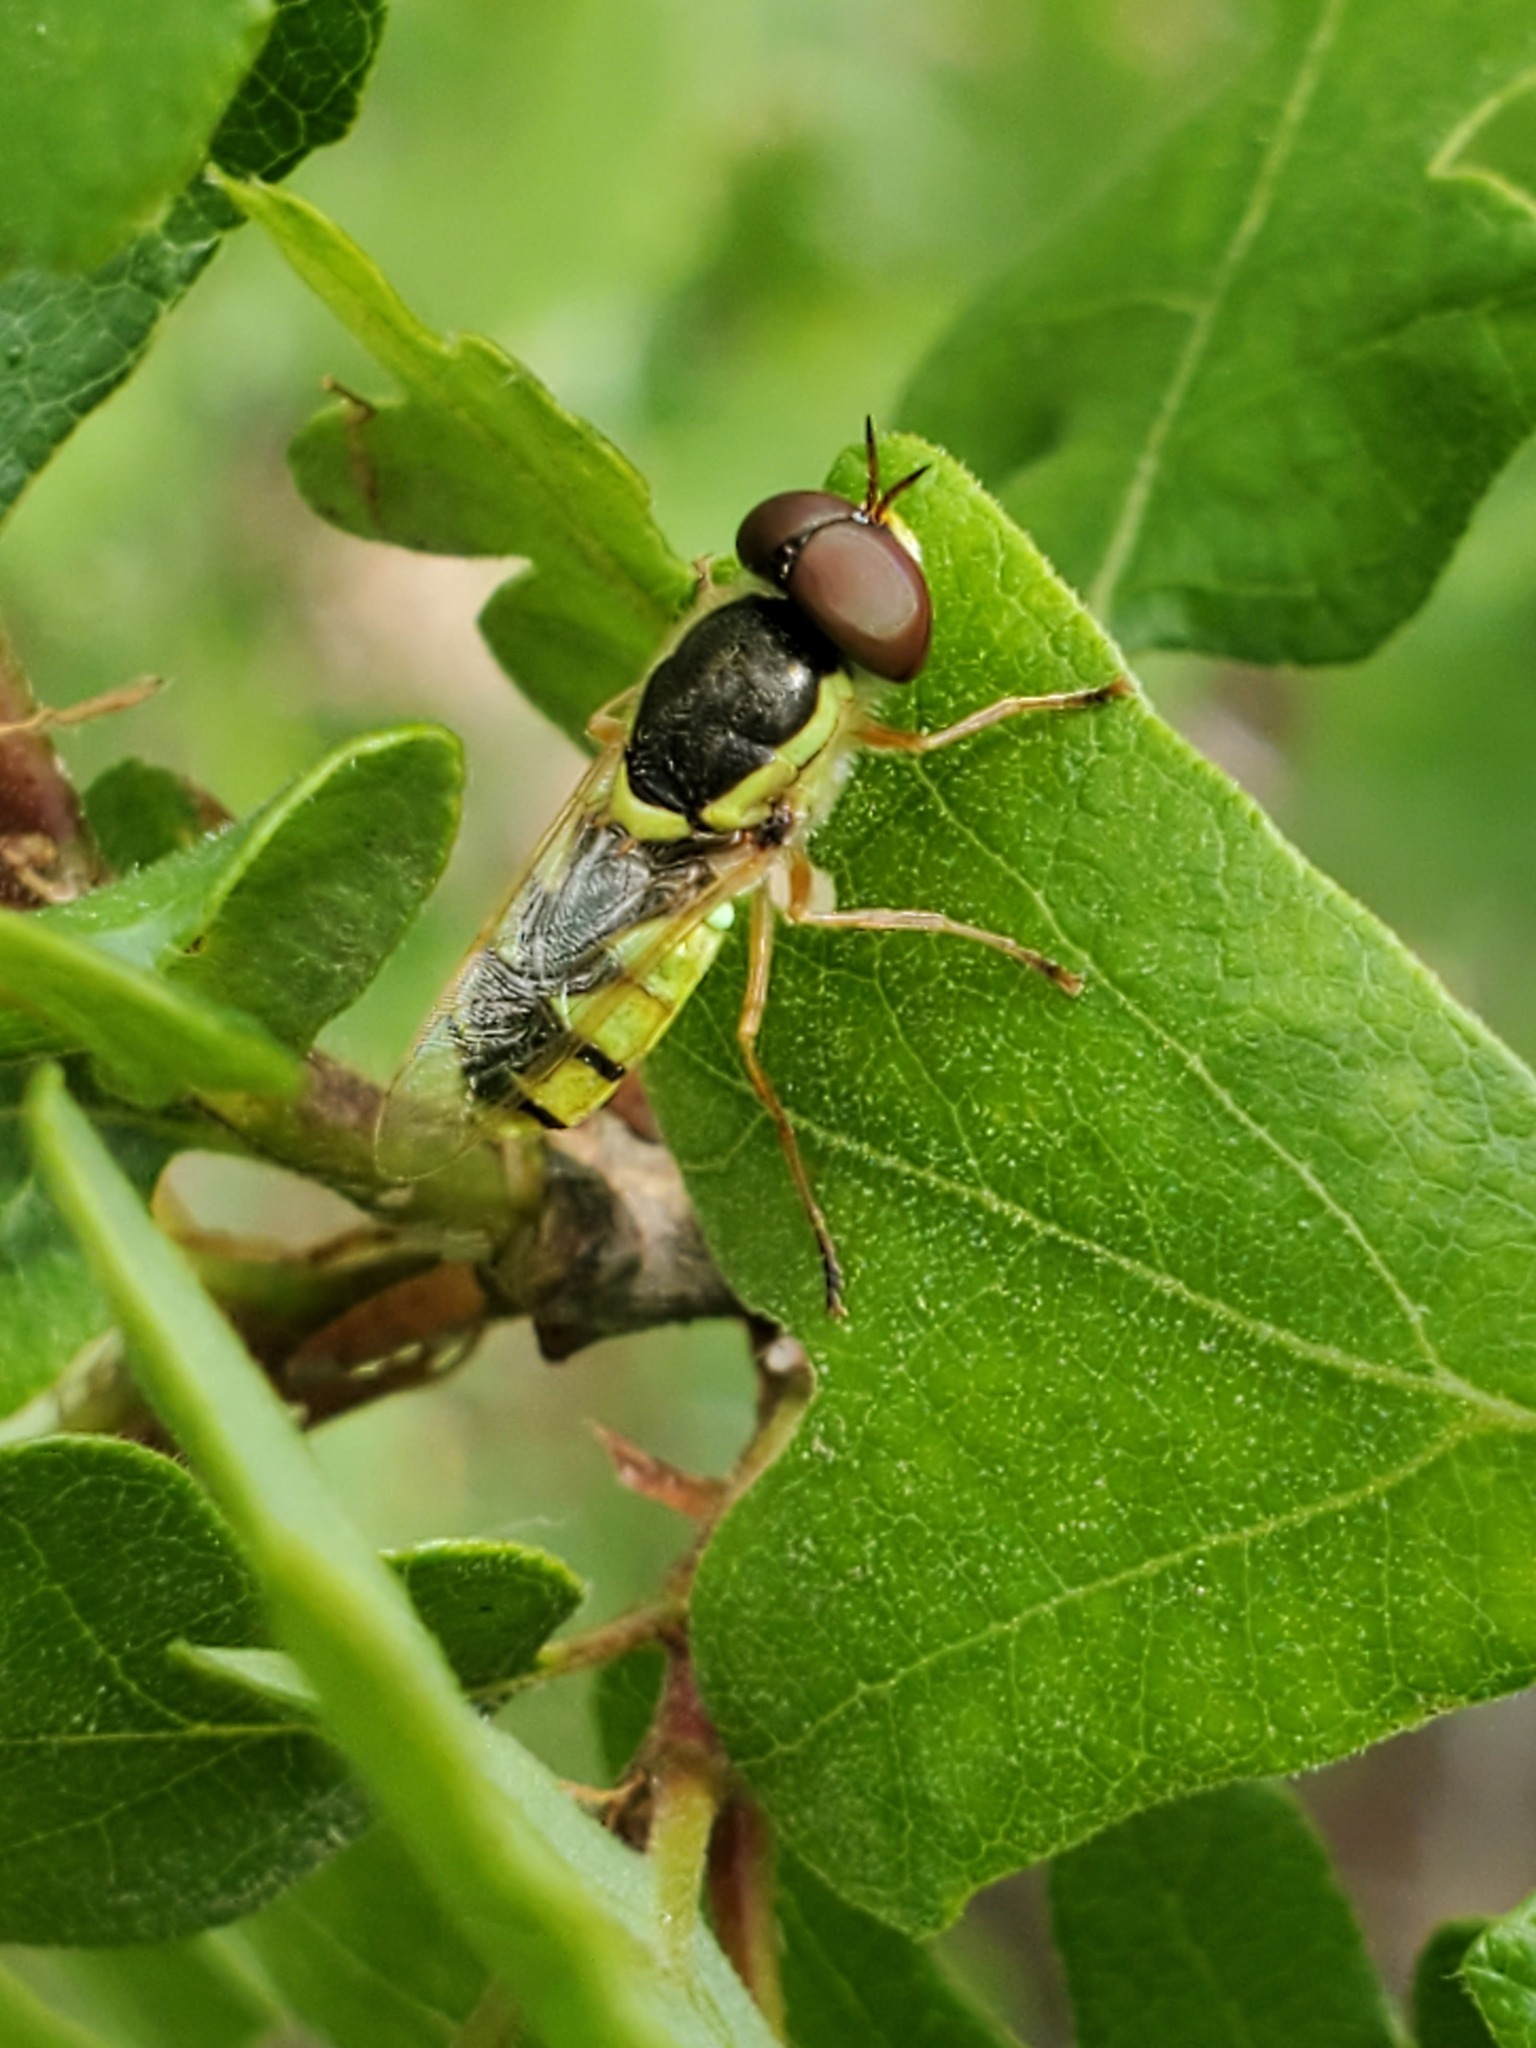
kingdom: Animalia
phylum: Arthropoda
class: Insecta
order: Diptera
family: Stratiomyidae
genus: Odontomyia
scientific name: Odontomyia cincta
